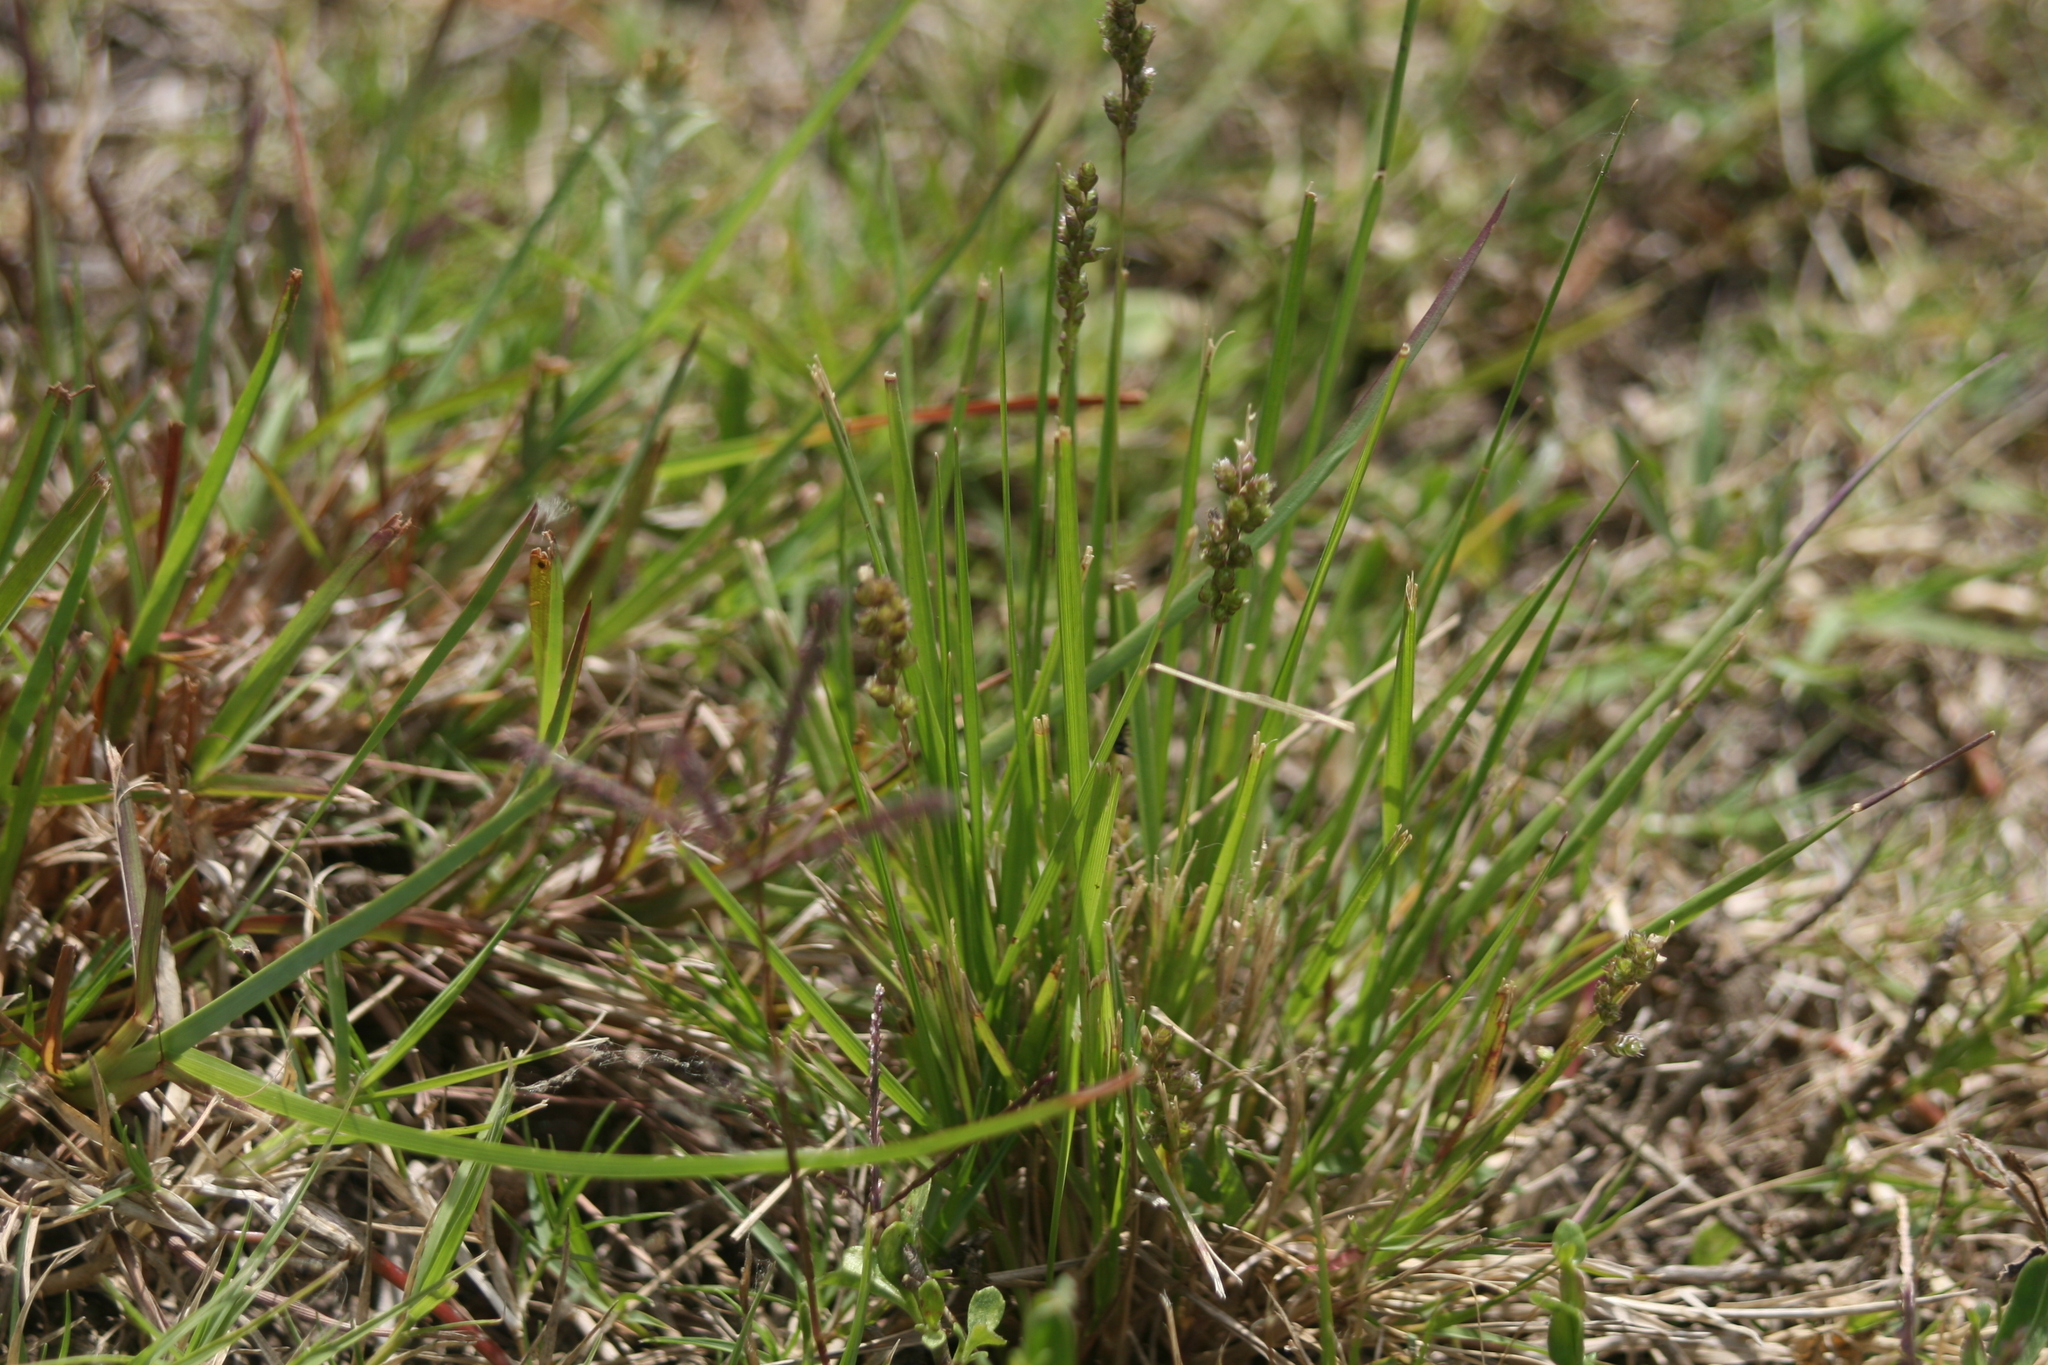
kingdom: Plantae
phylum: Tracheophyta
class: Liliopsida
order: Poales
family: Poaceae
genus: Chascolytrum
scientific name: Chascolytrum subaristatum
